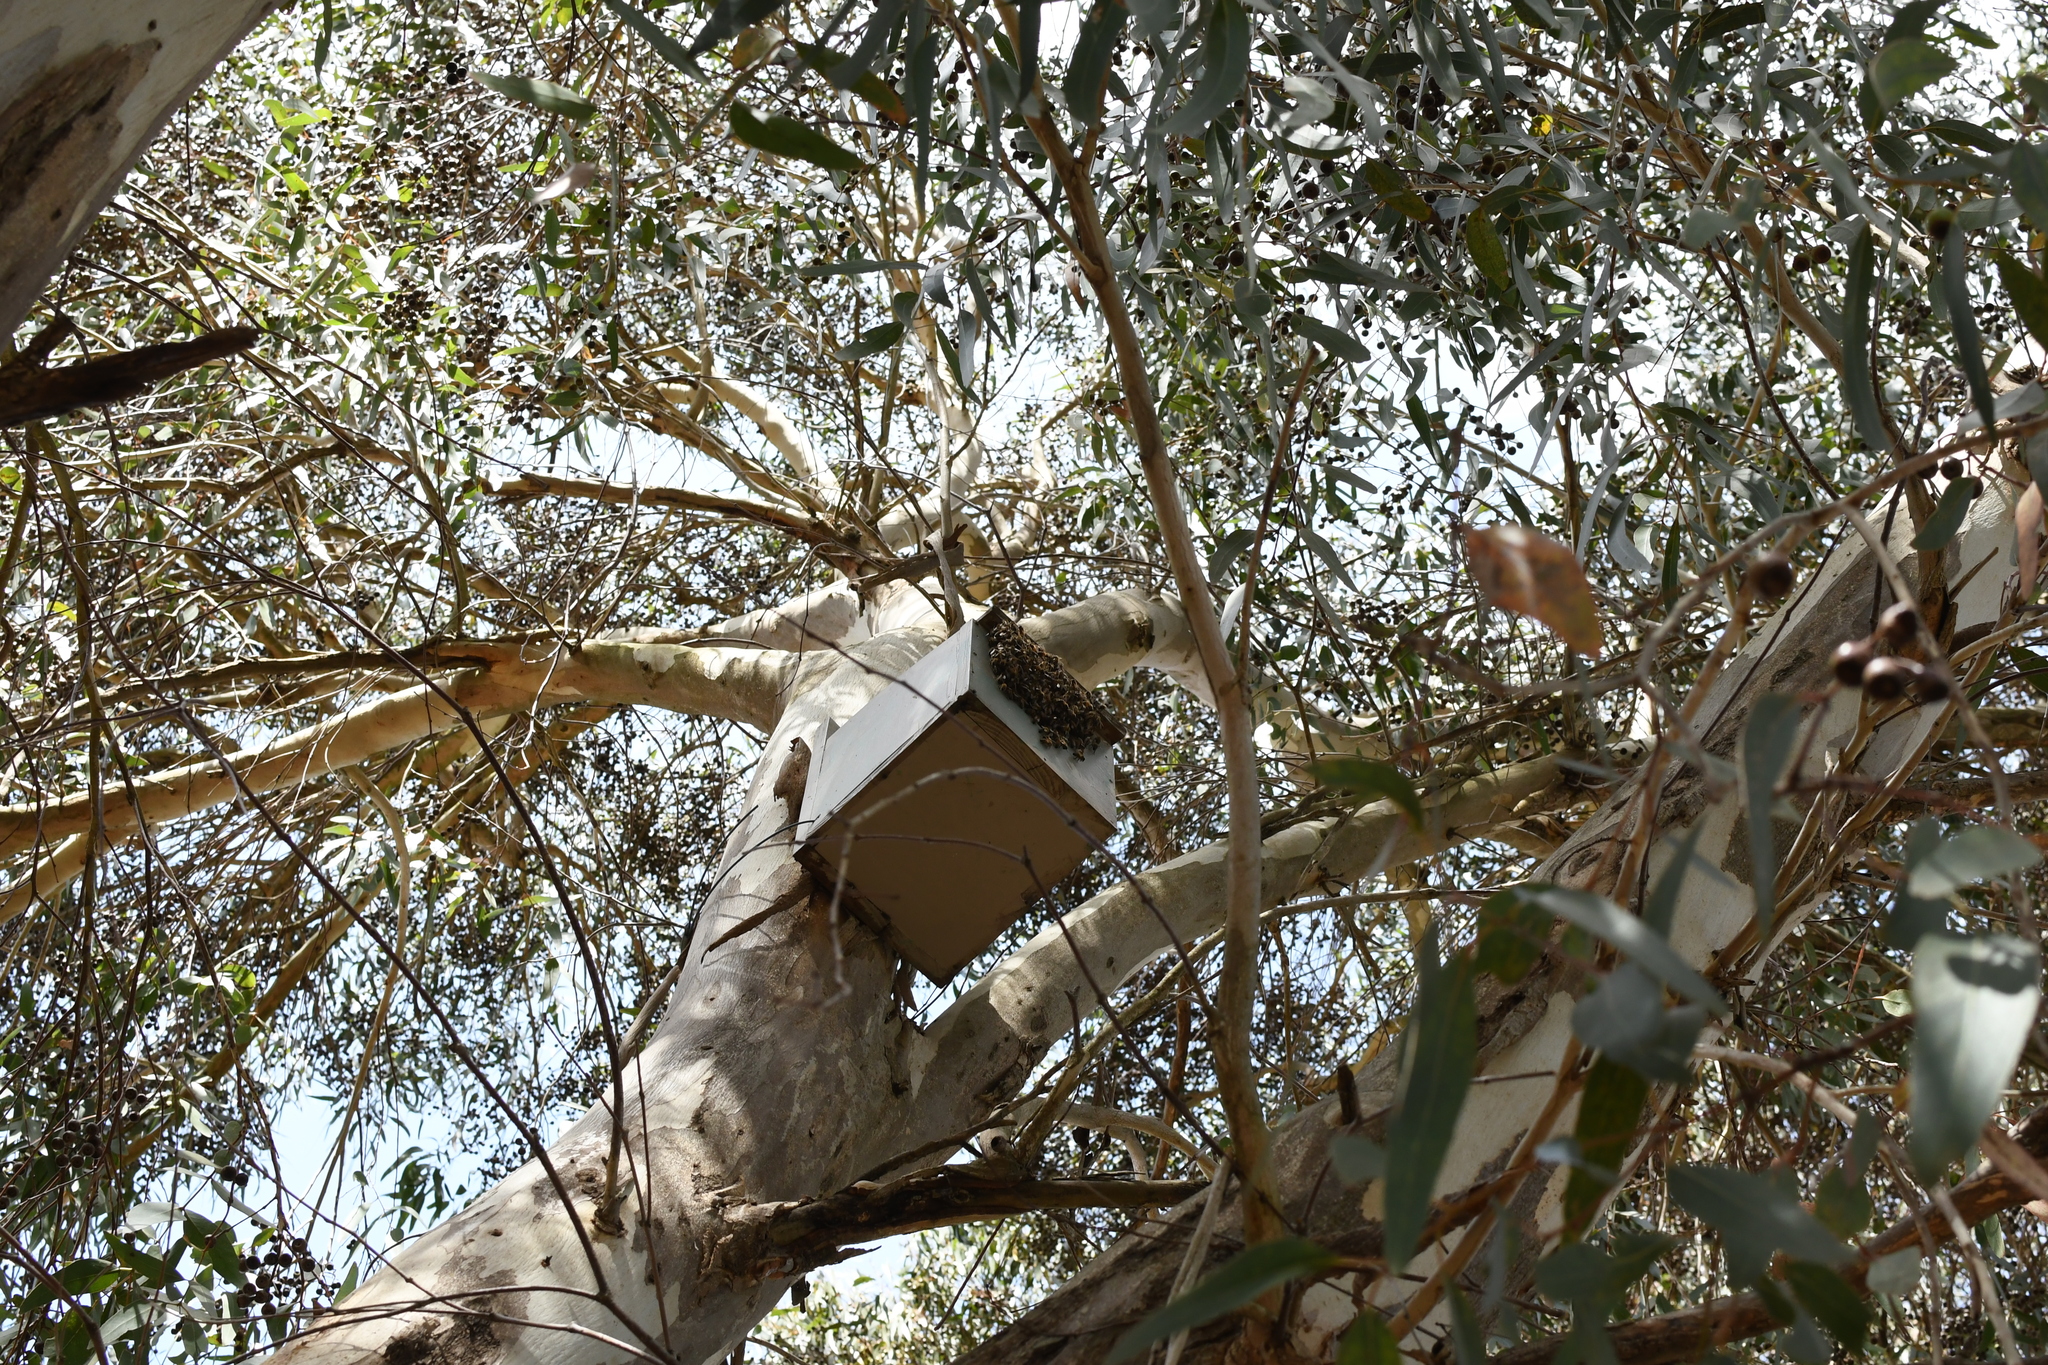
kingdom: Animalia
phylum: Arthropoda
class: Insecta
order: Hymenoptera
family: Apidae
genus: Apis
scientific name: Apis mellifera
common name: Honey bee
